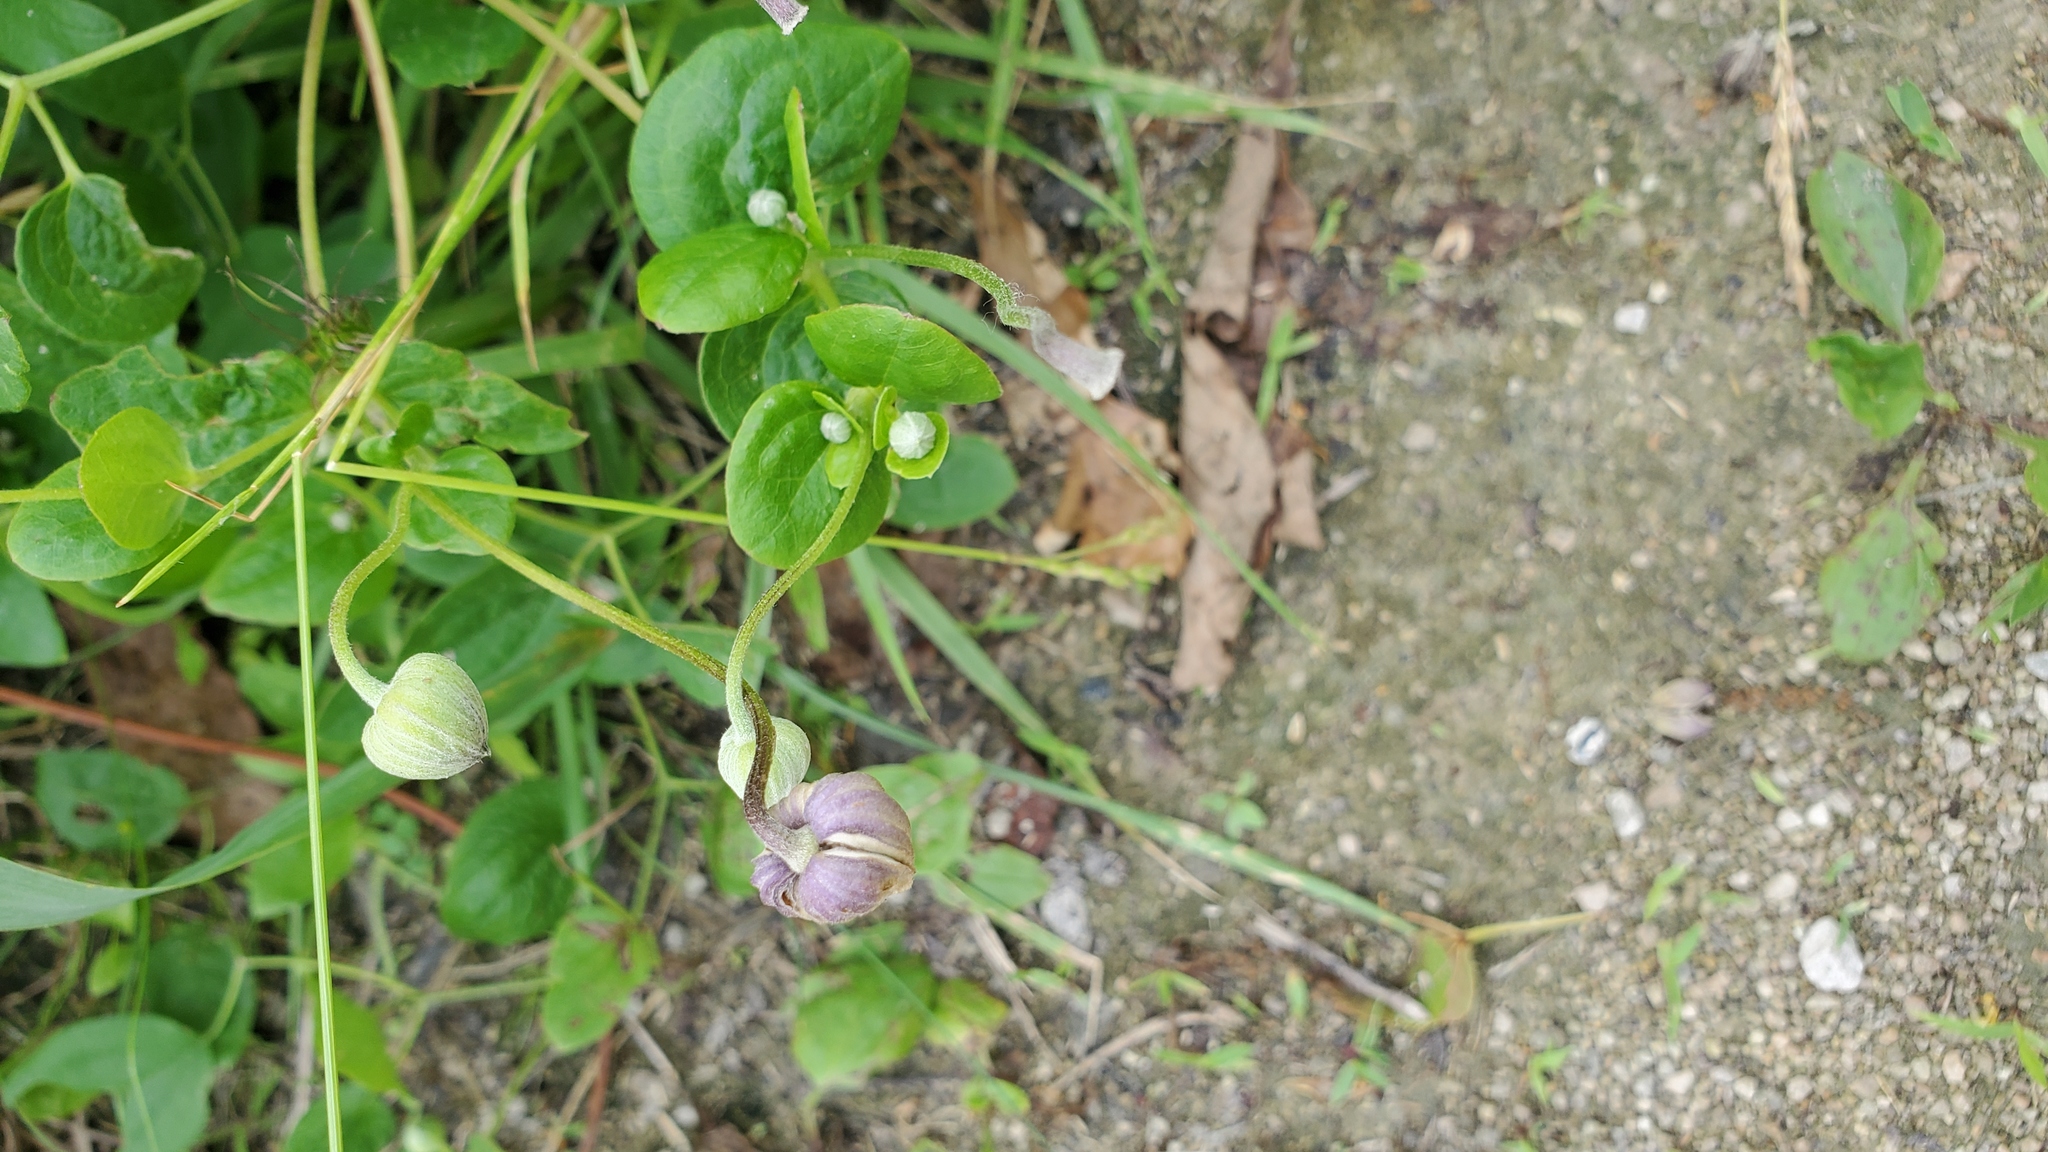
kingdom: Plantae
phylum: Tracheophyta
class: Magnoliopsida
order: Ranunculales
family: Ranunculaceae
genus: Clematis
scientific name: Clematis pitcheri
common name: Bellflower clematis
